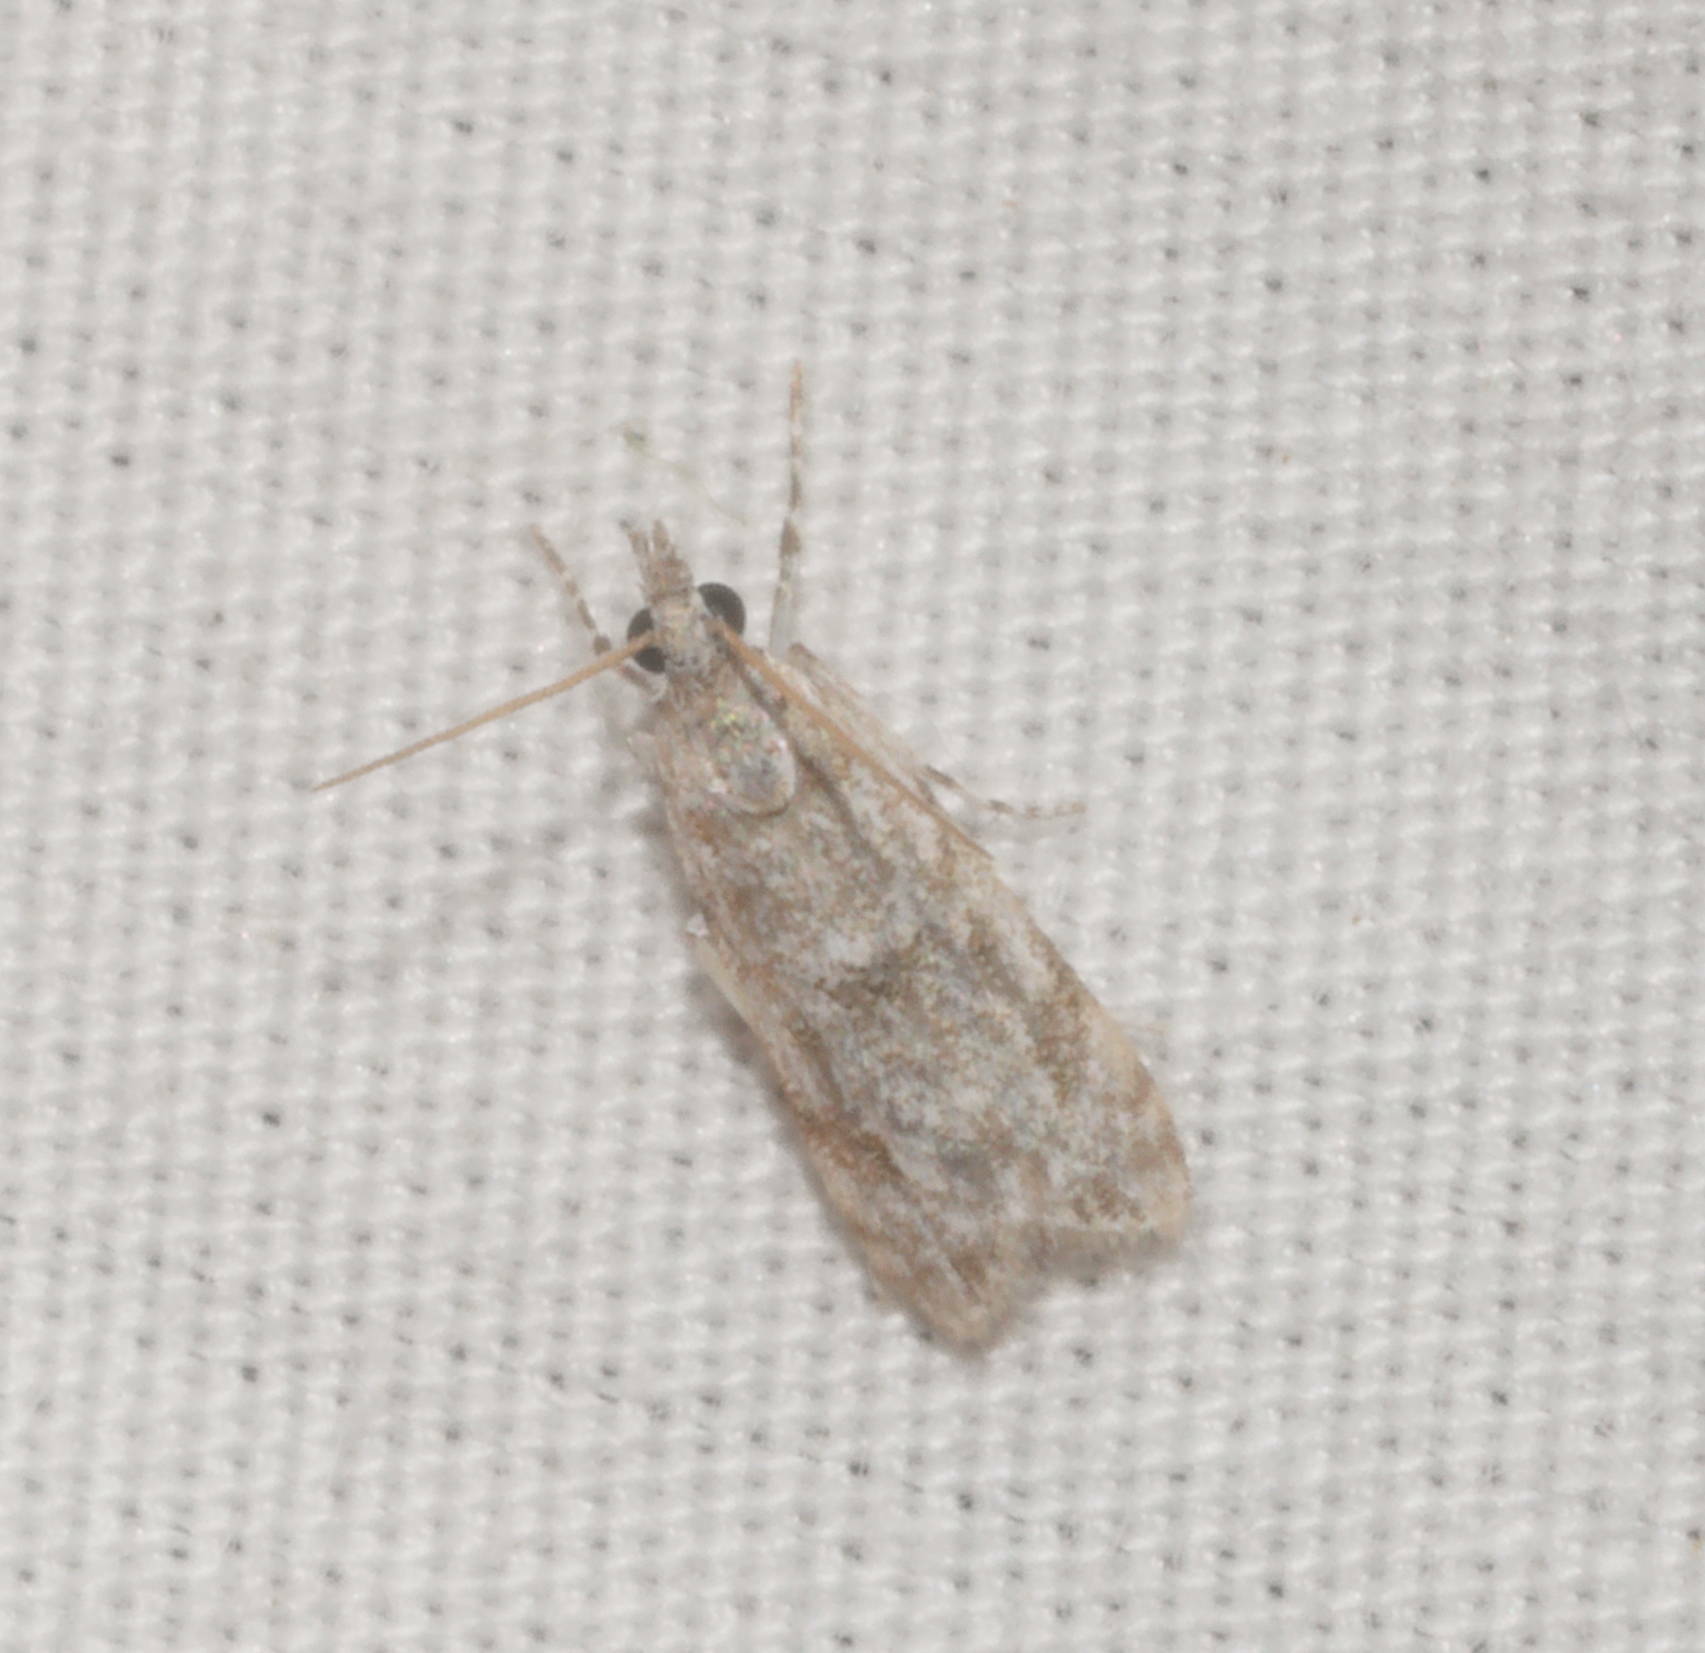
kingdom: Animalia
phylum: Arthropoda
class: Insecta
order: Lepidoptera
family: Crambidae
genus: Eudonia
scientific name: Eudonia geraea
